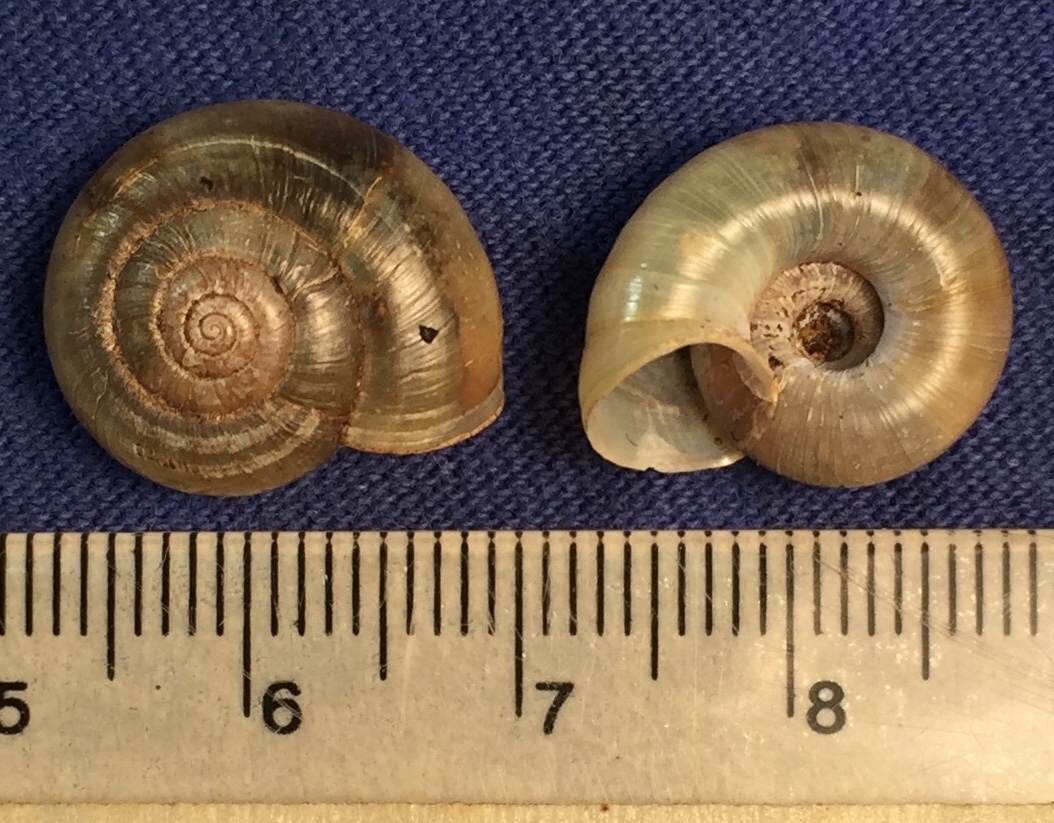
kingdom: Animalia
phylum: Mollusca
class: Gastropoda
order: Stylommatophora
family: Haplotrematidae
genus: Haplotrema
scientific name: Haplotrema concavum
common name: Gray-foot lancetooth
